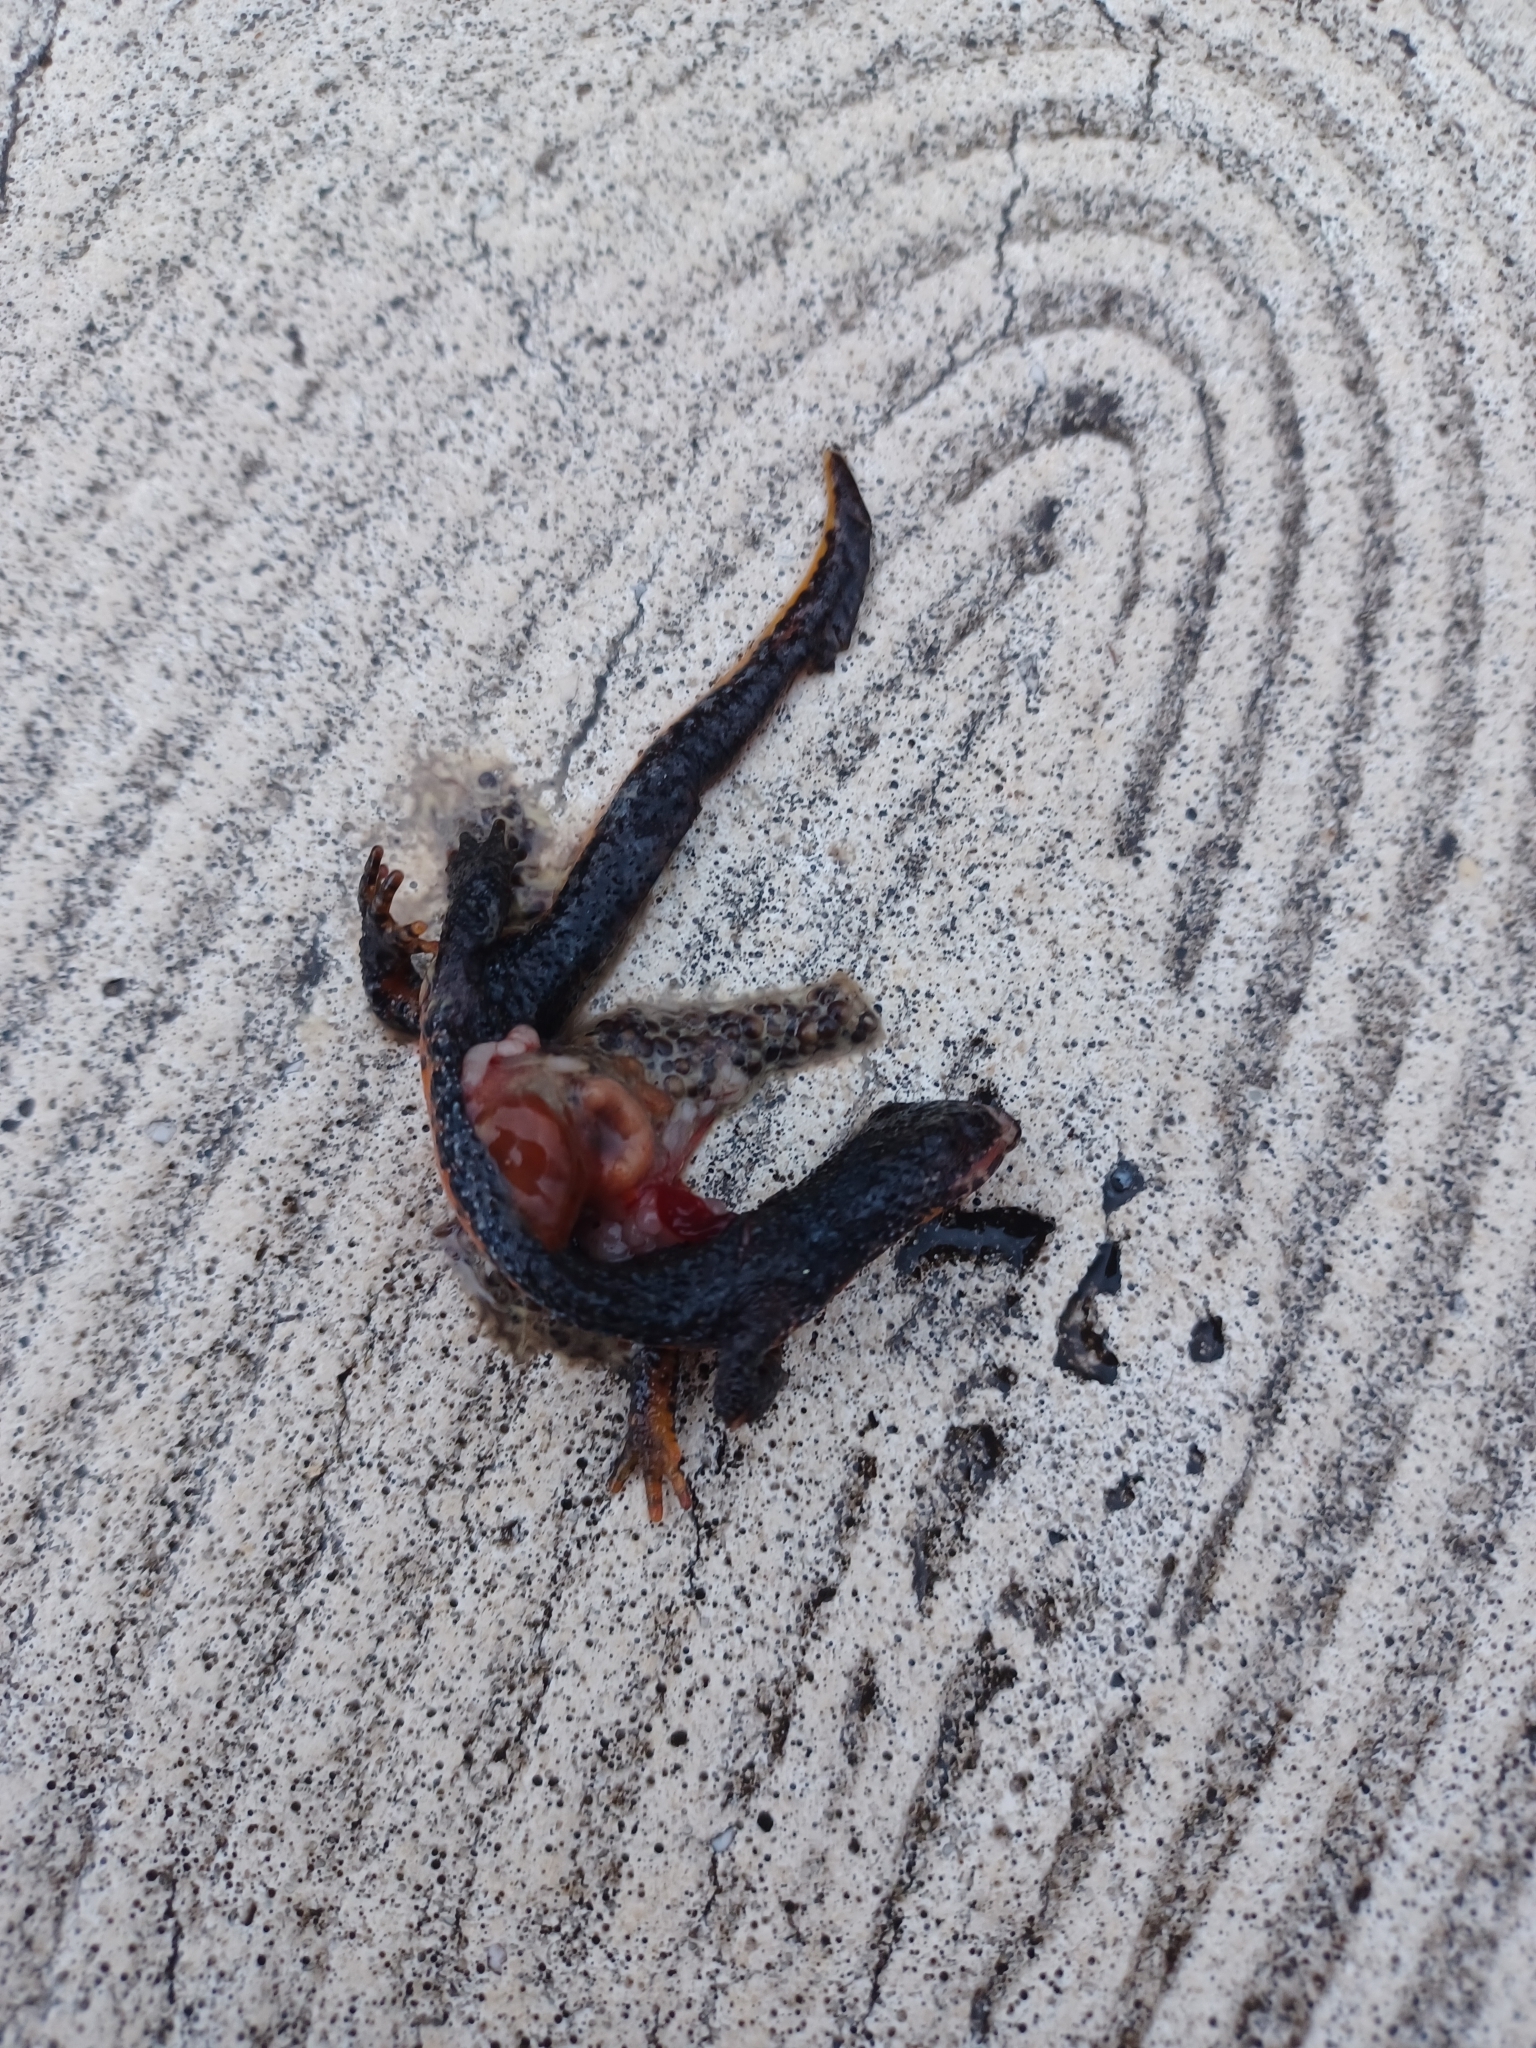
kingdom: Animalia
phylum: Chordata
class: Amphibia
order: Caudata
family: Salamandridae
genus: Ichthyosaura
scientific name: Ichthyosaura alpestris
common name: Alpine newt
